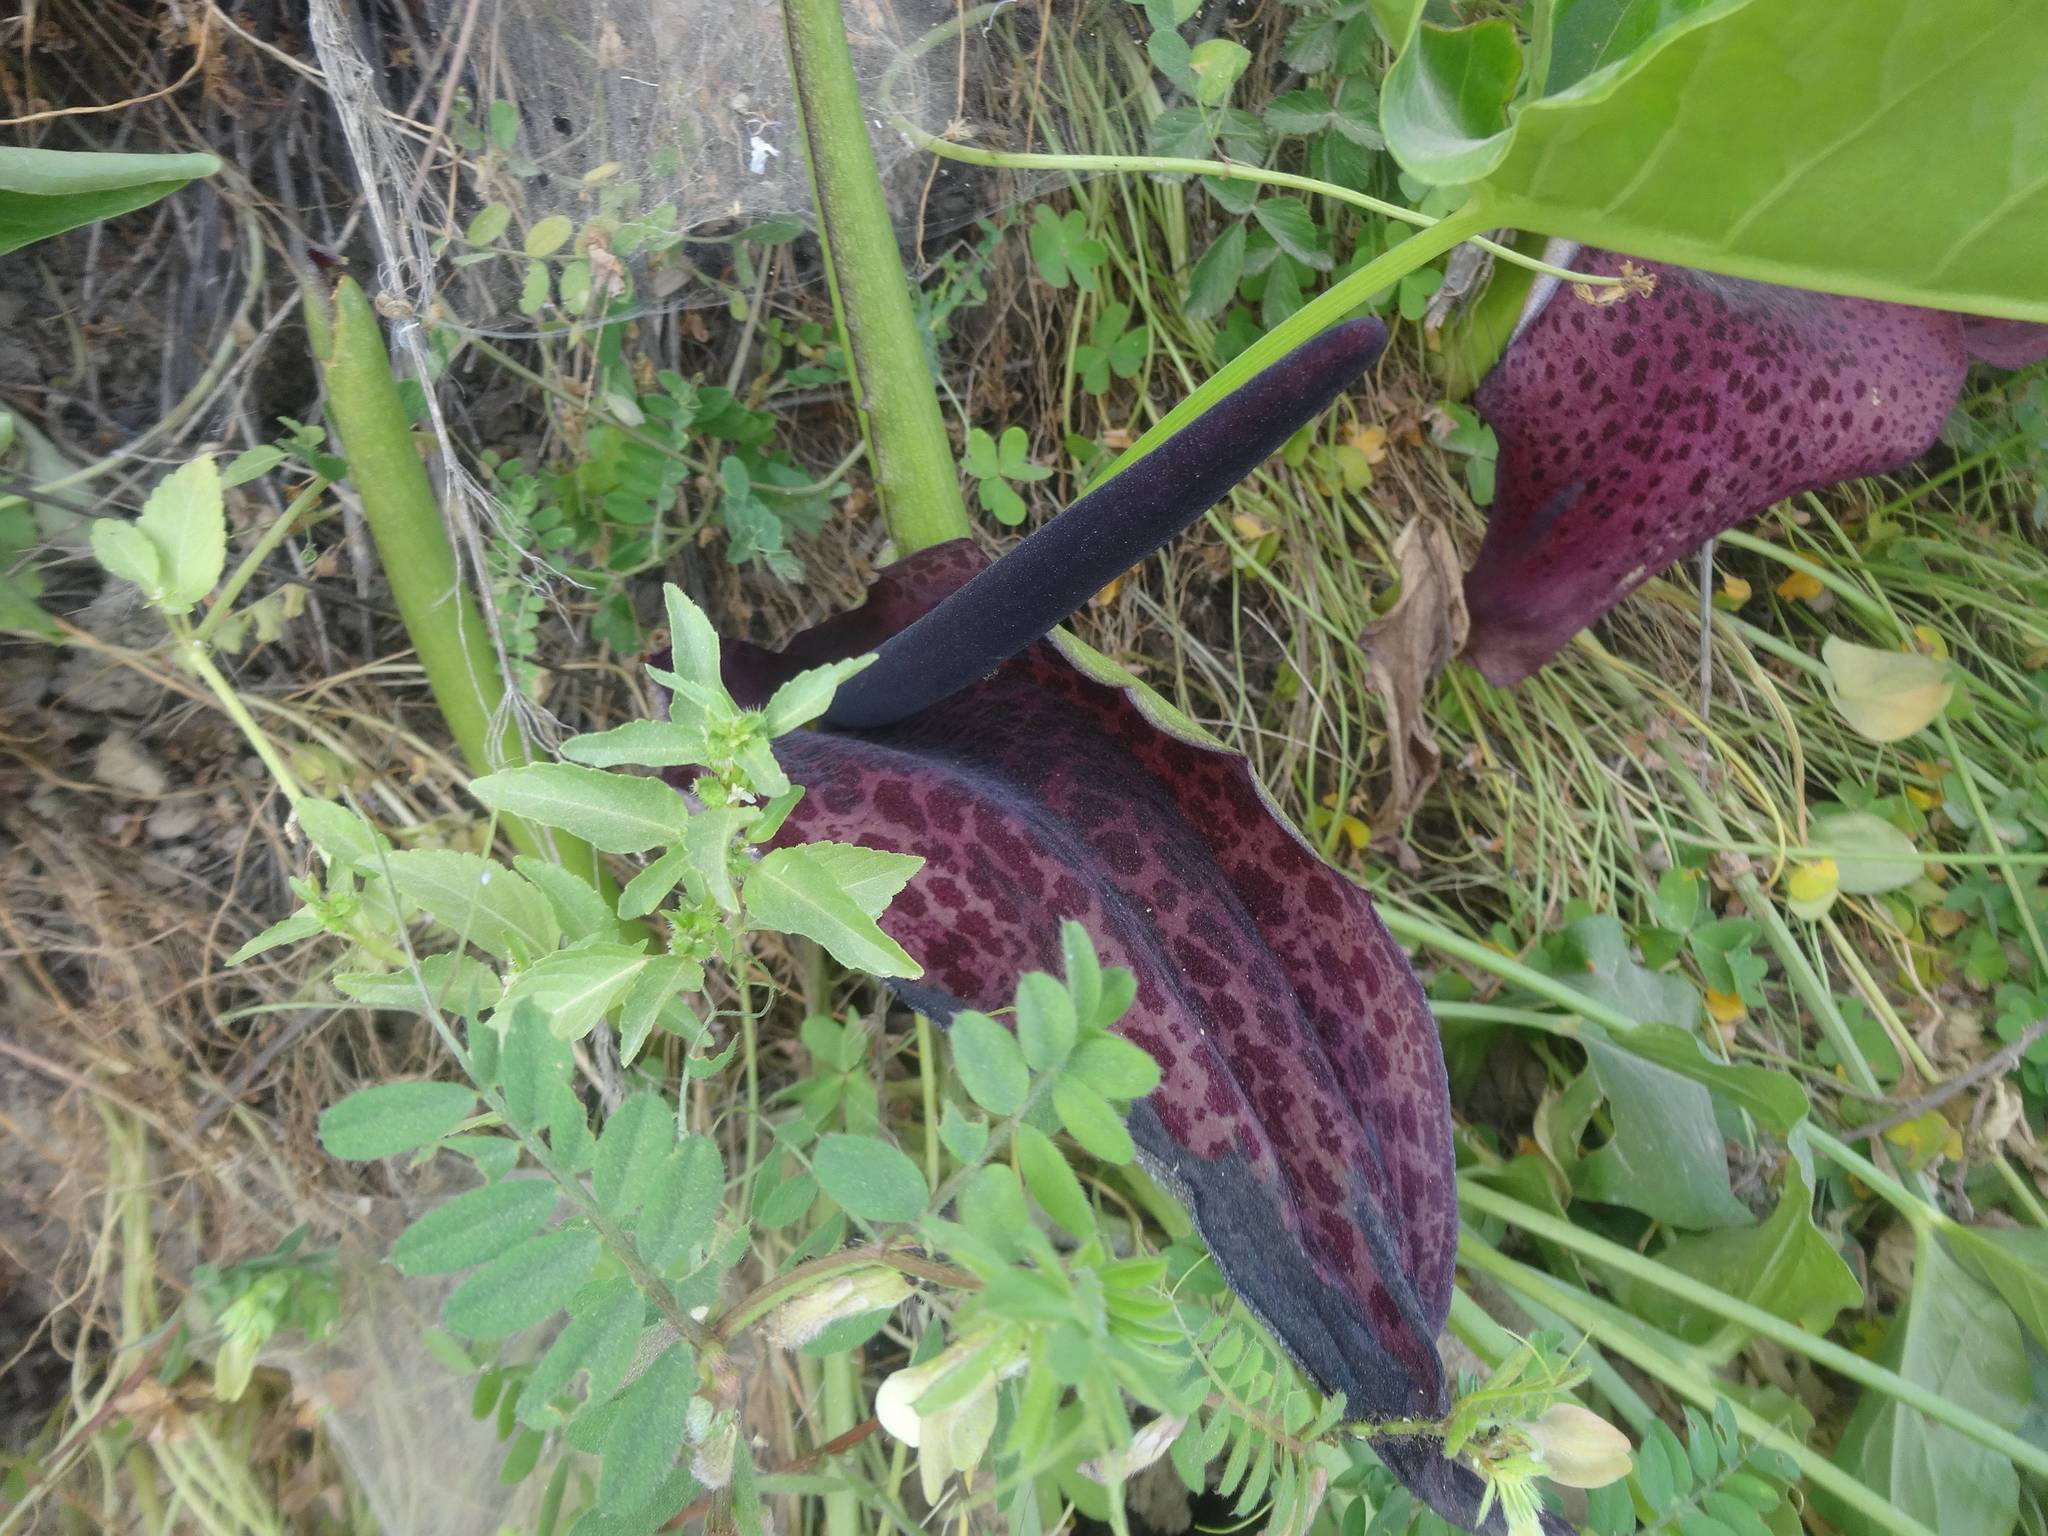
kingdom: Plantae
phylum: Tracheophyta
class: Liliopsida
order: Alismatales
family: Araceae
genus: Arum
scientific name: Arum dioscoridis
